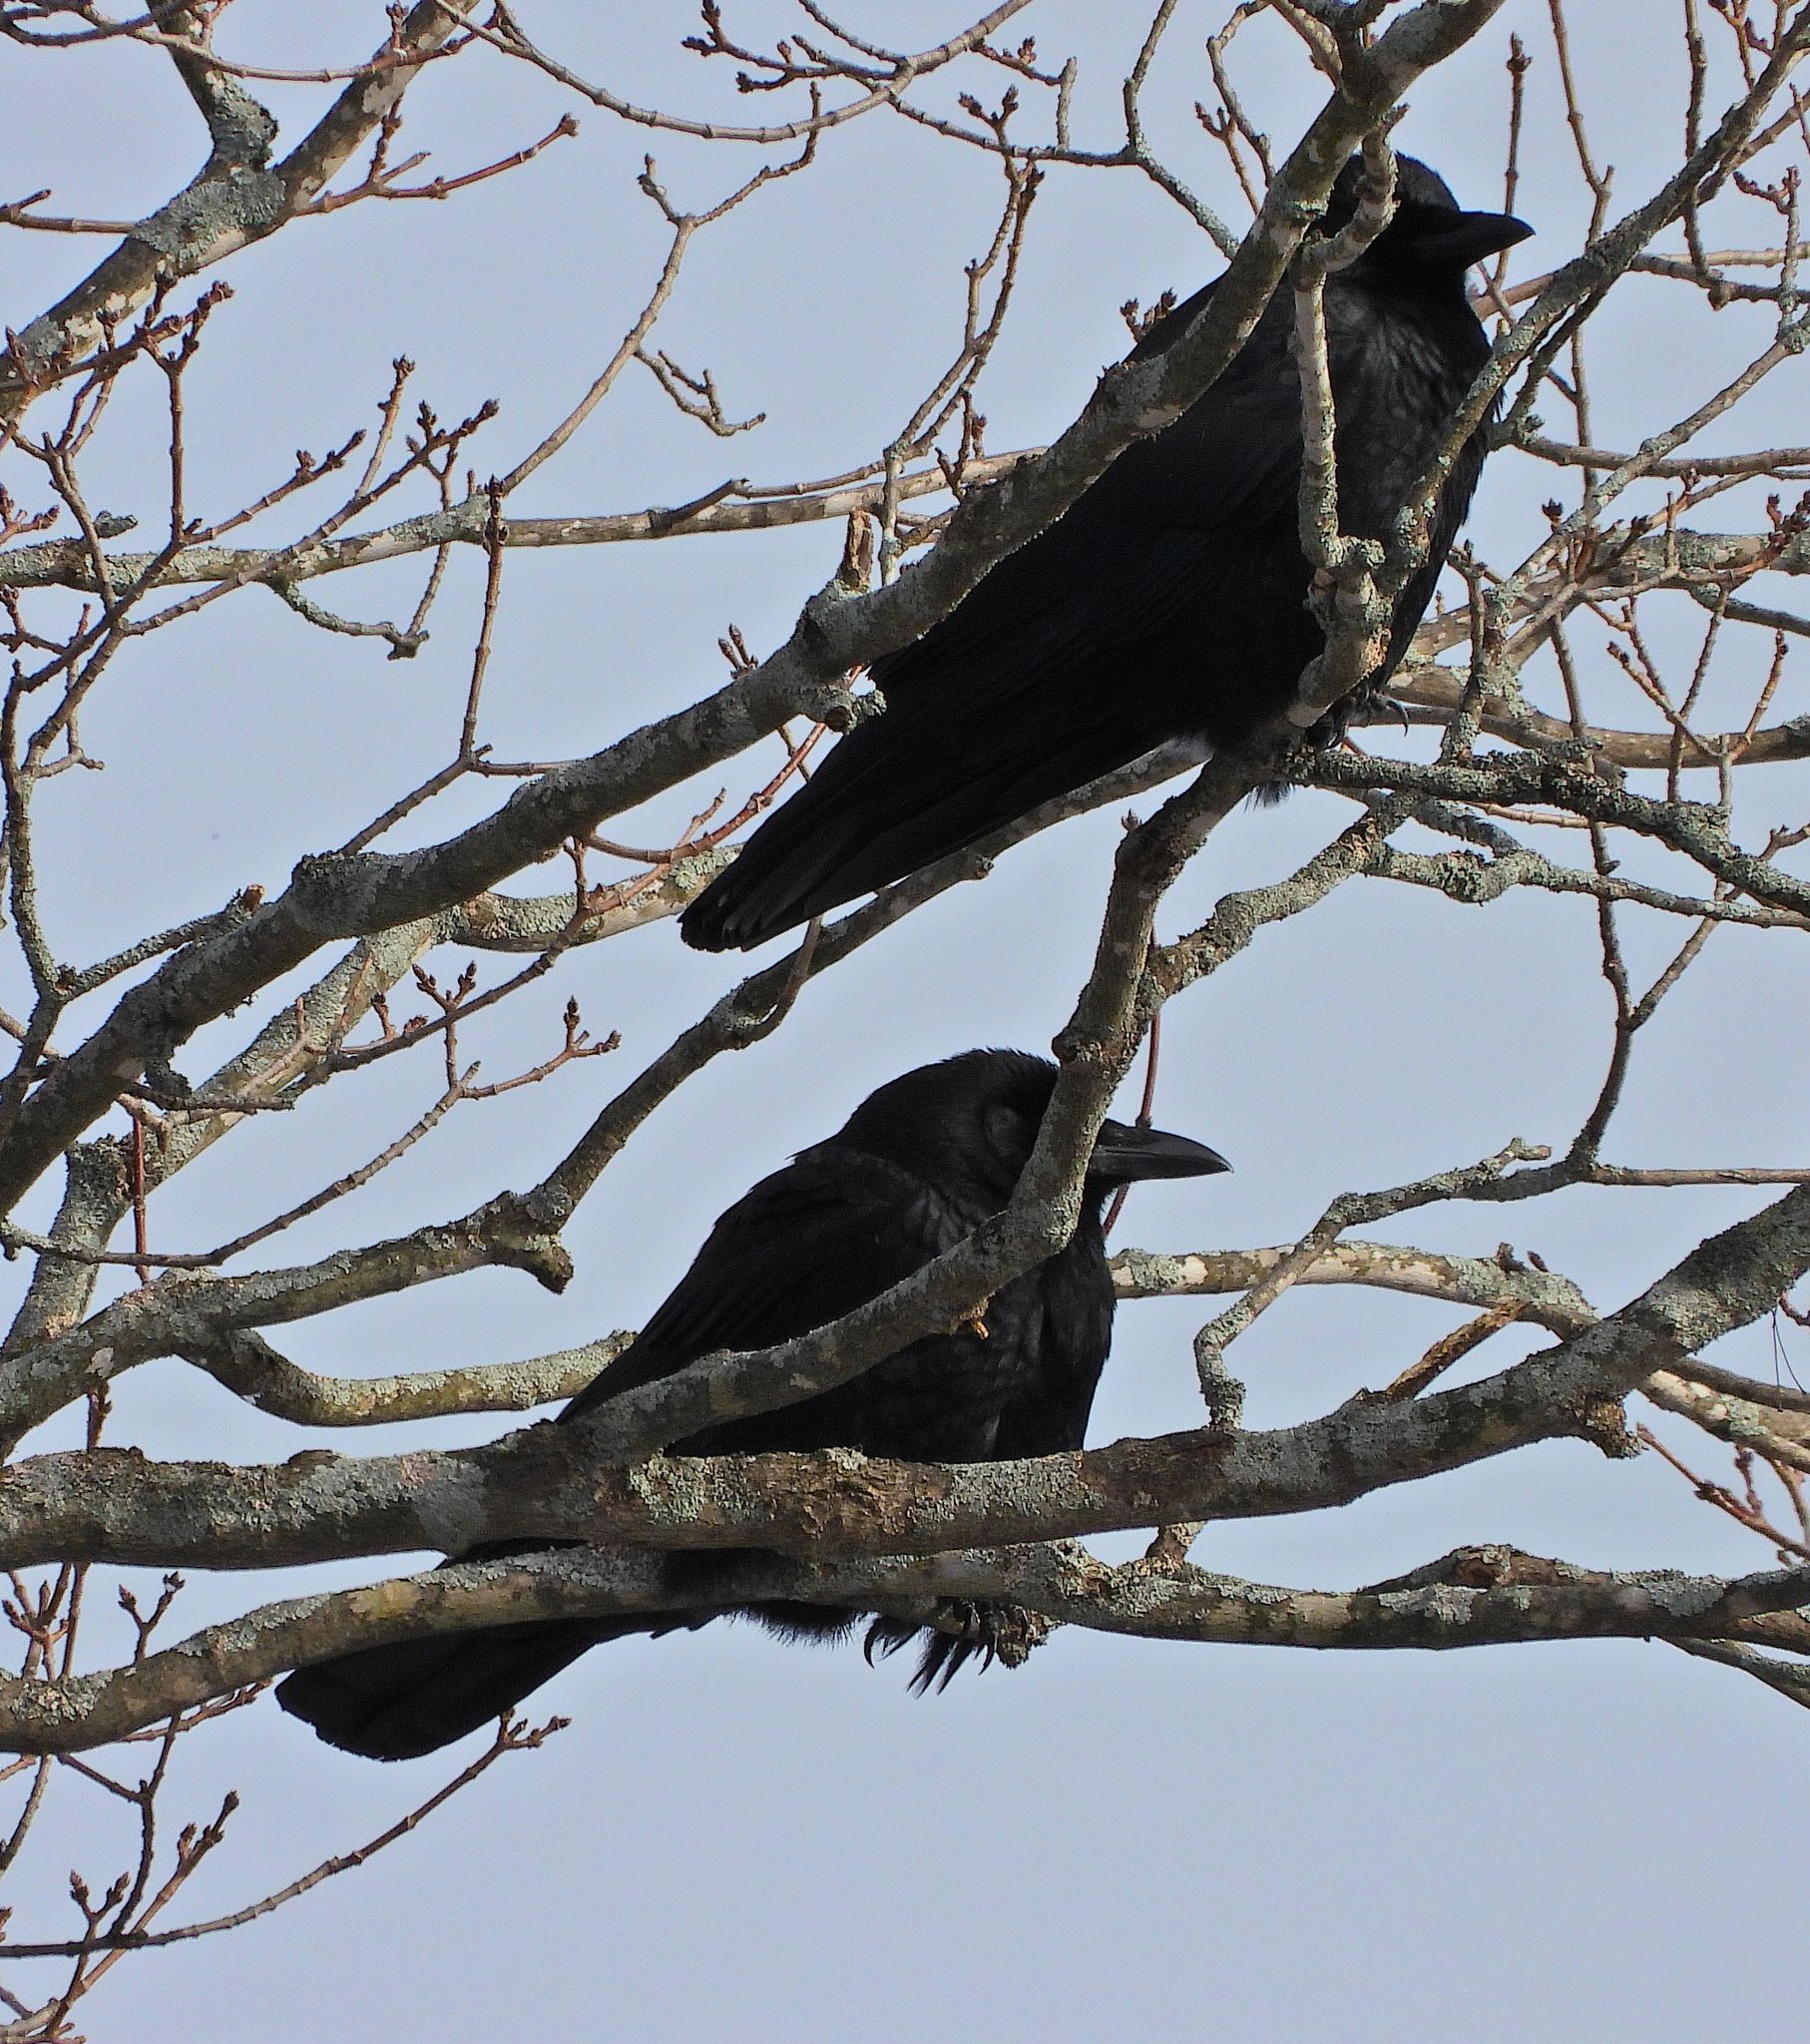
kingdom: Animalia
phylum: Chordata
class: Aves
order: Passeriformes
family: Corvidae
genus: Corvus
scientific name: Corvus brachyrhynchos
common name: American crow
